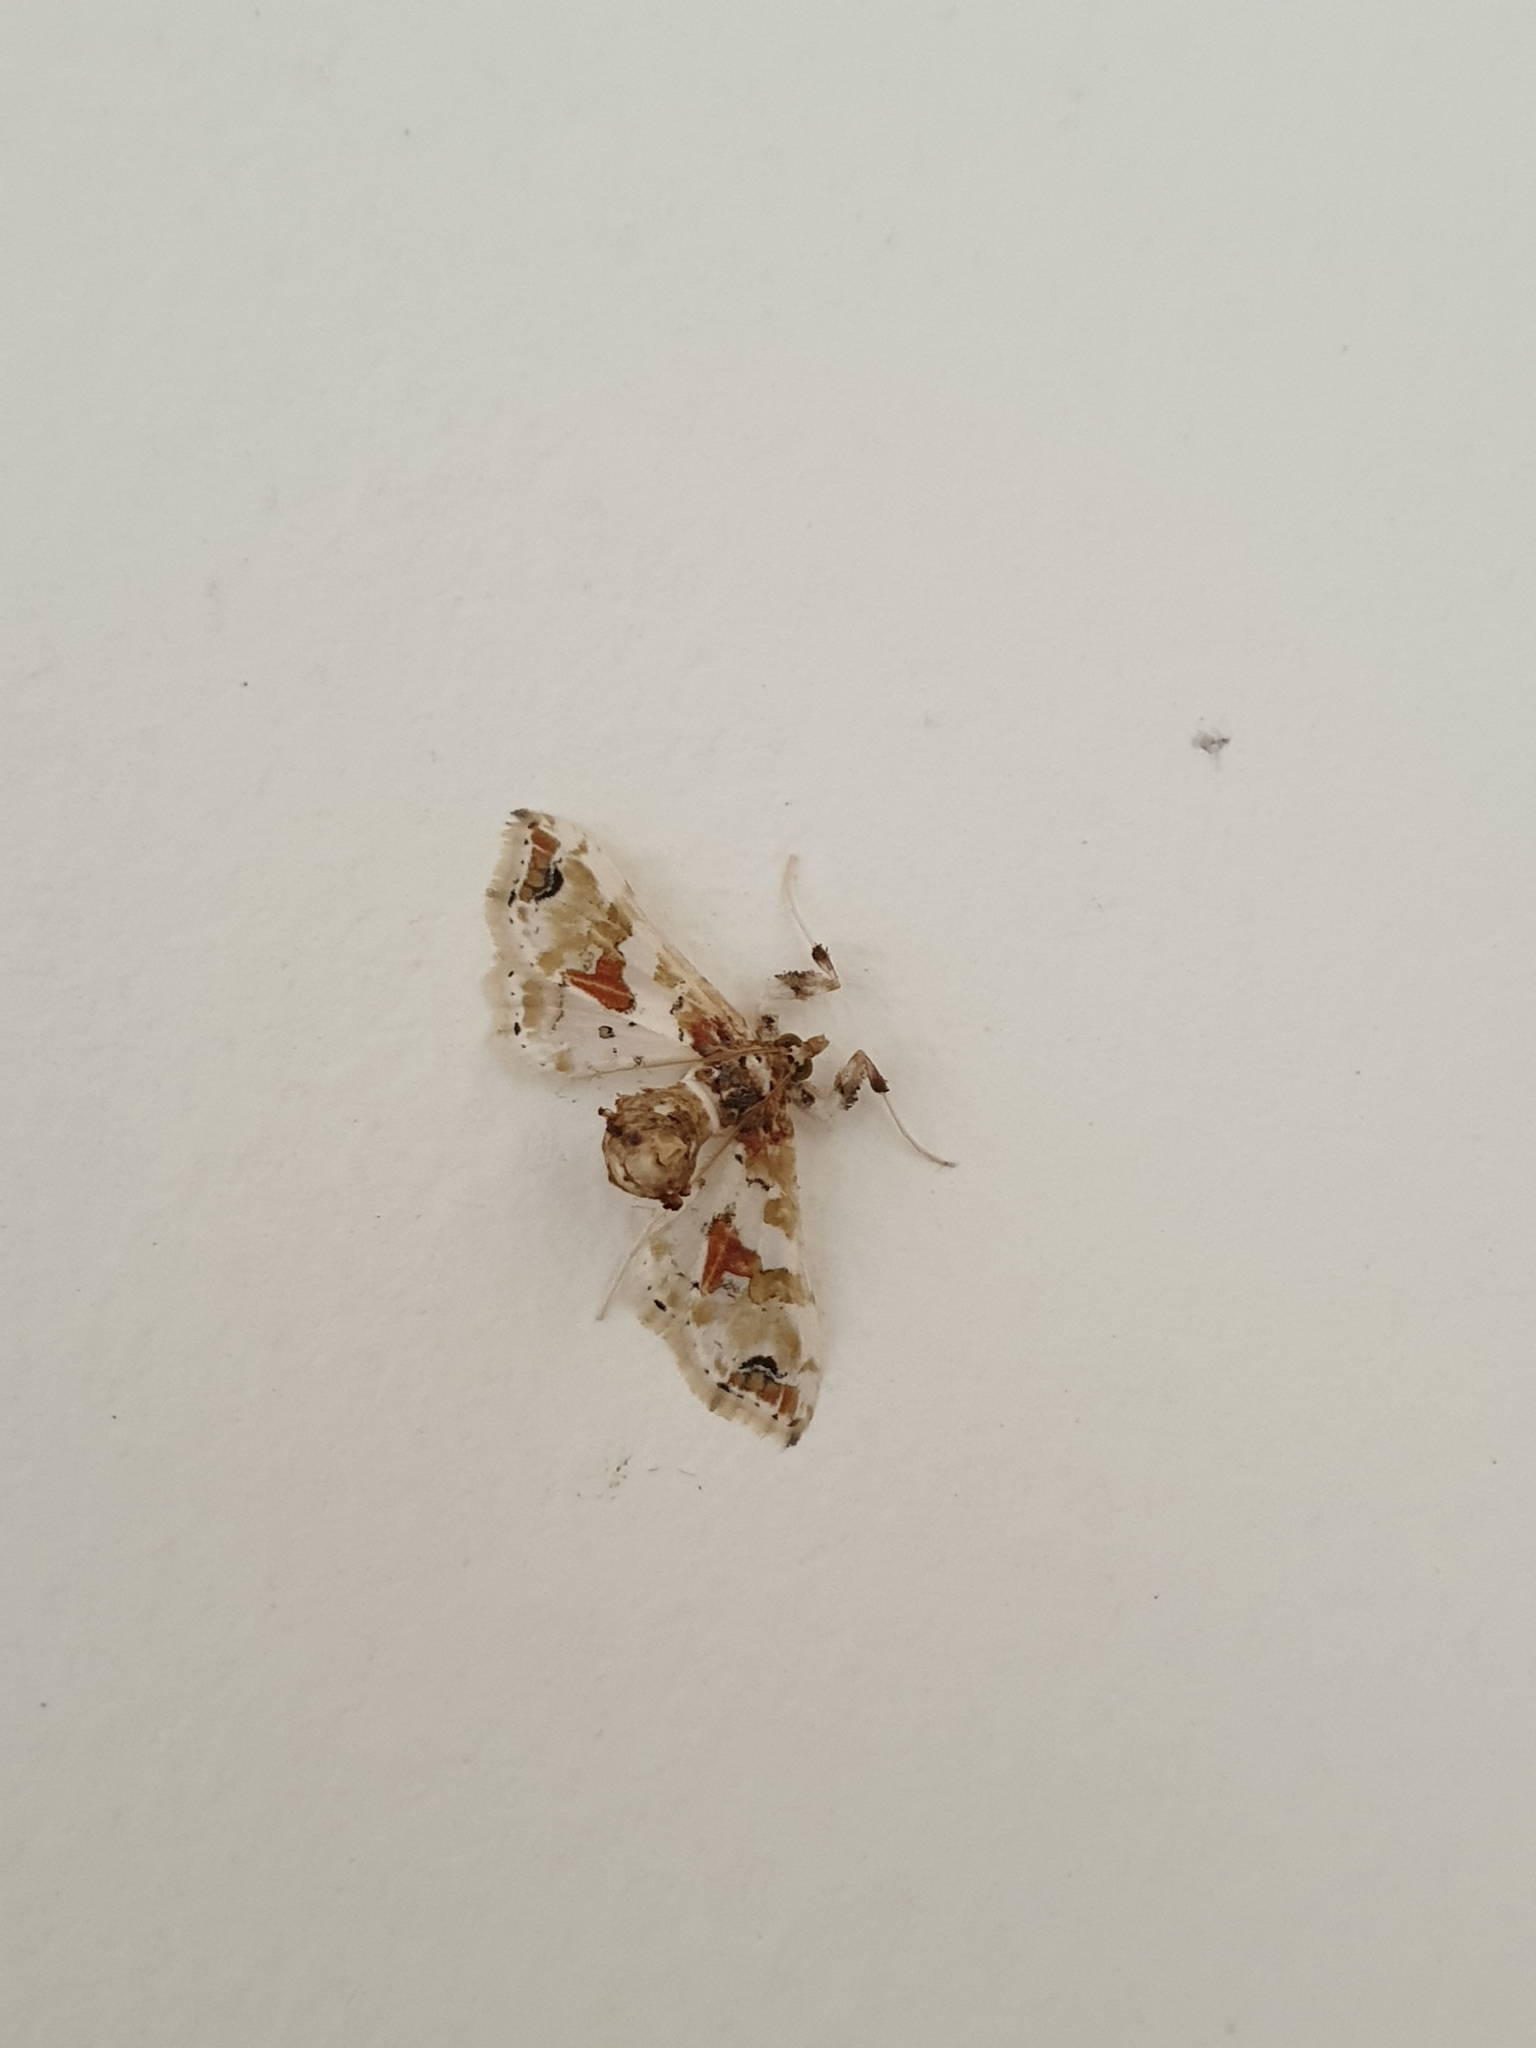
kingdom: Animalia
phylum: Arthropoda
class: Insecta
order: Lepidoptera
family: Crambidae
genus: Leucinodes
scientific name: Leucinodes orbonalis
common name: Aubergine pearl
